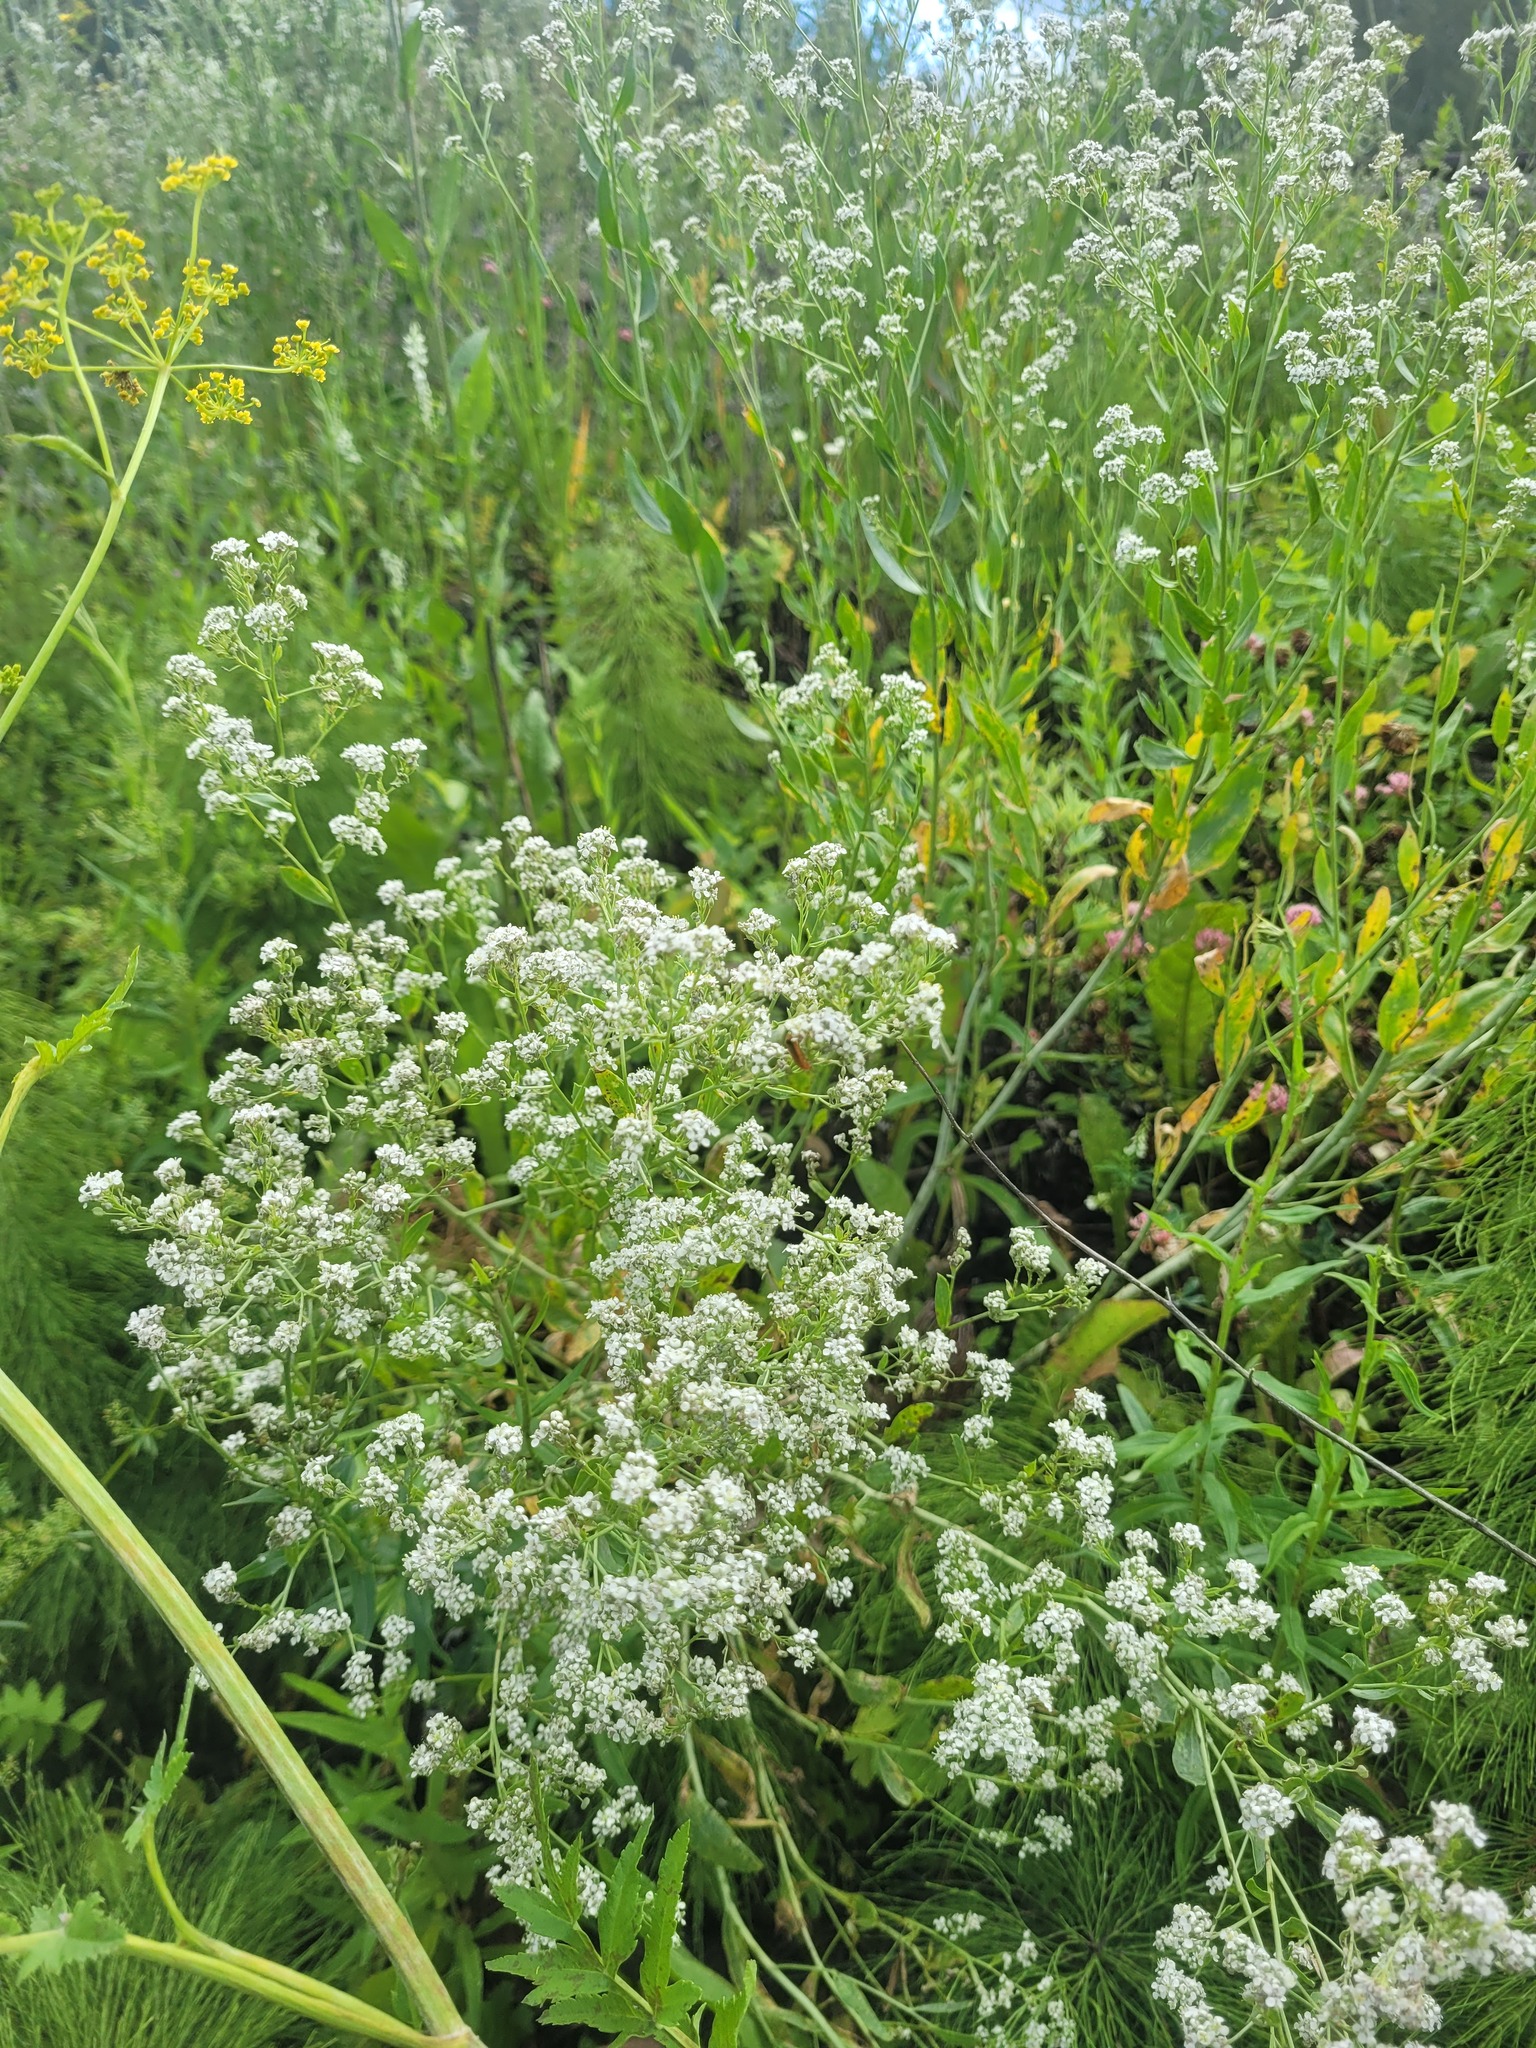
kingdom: Plantae
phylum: Tracheophyta
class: Magnoliopsida
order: Brassicales
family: Brassicaceae
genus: Lepidium
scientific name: Lepidium latifolium
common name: Dittander
